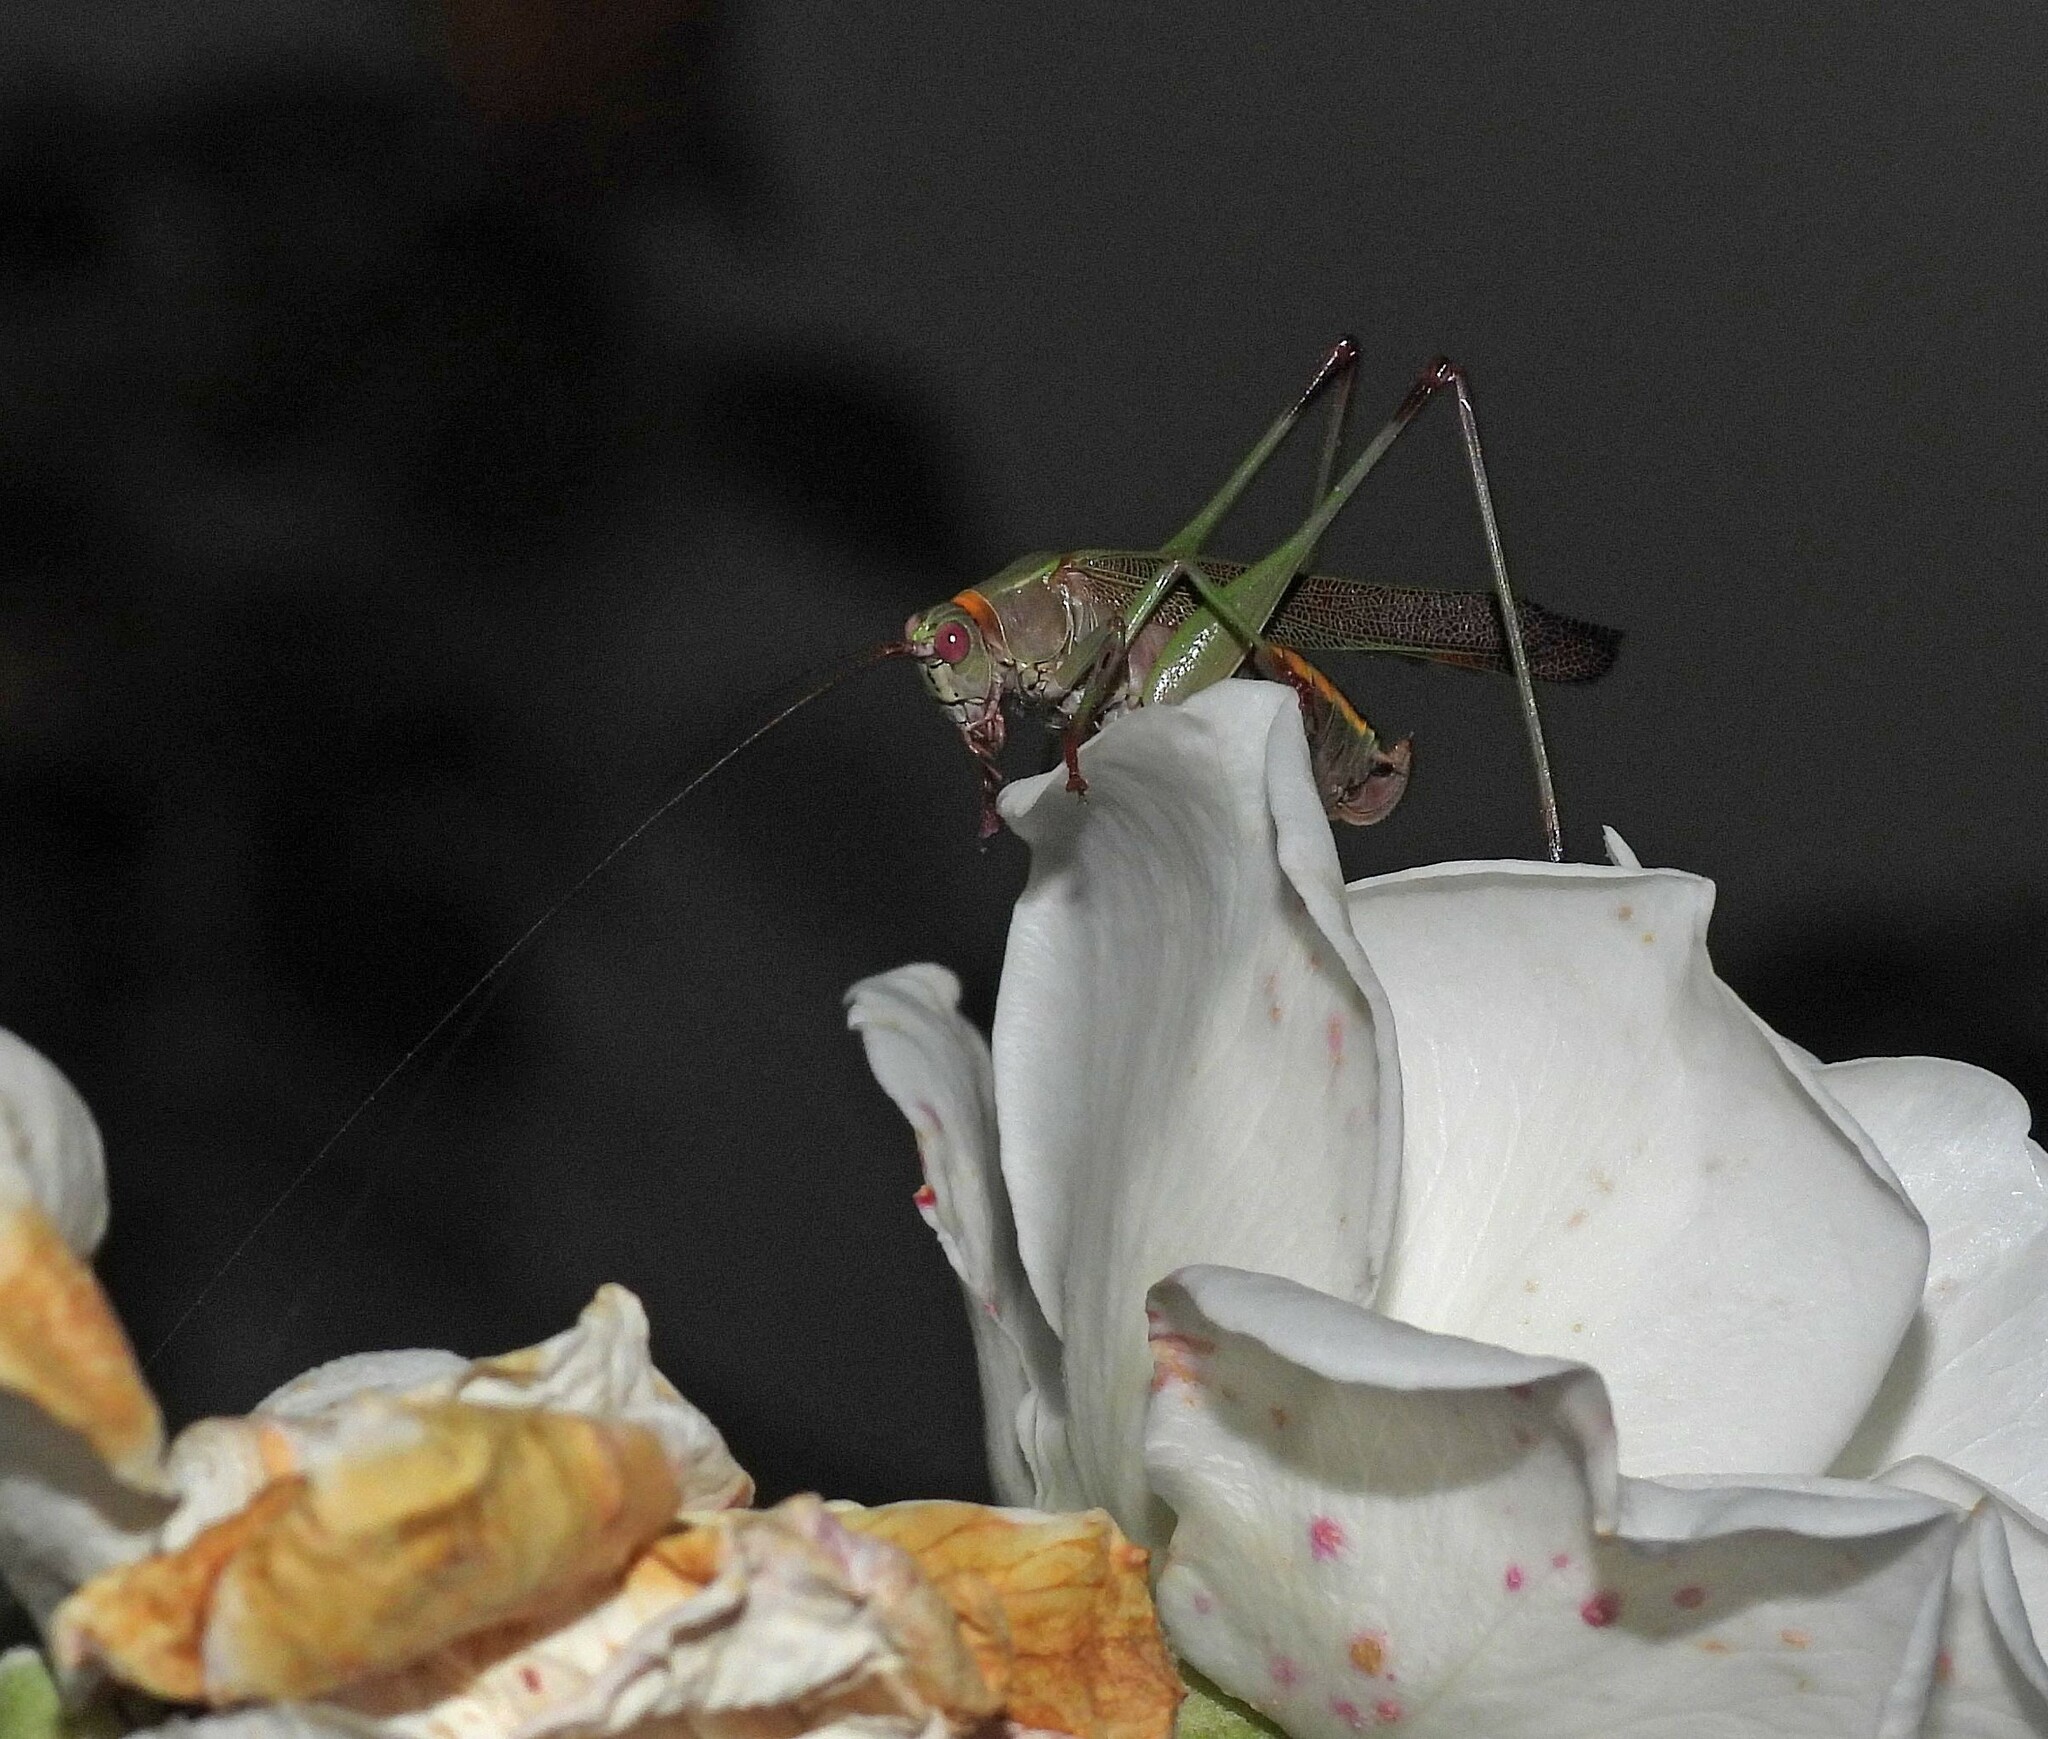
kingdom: Animalia
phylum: Arthropoda
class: Insecta
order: Orthoptera
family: Tettigoniidae
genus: Enthephippion
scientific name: Enthephippion borellii
